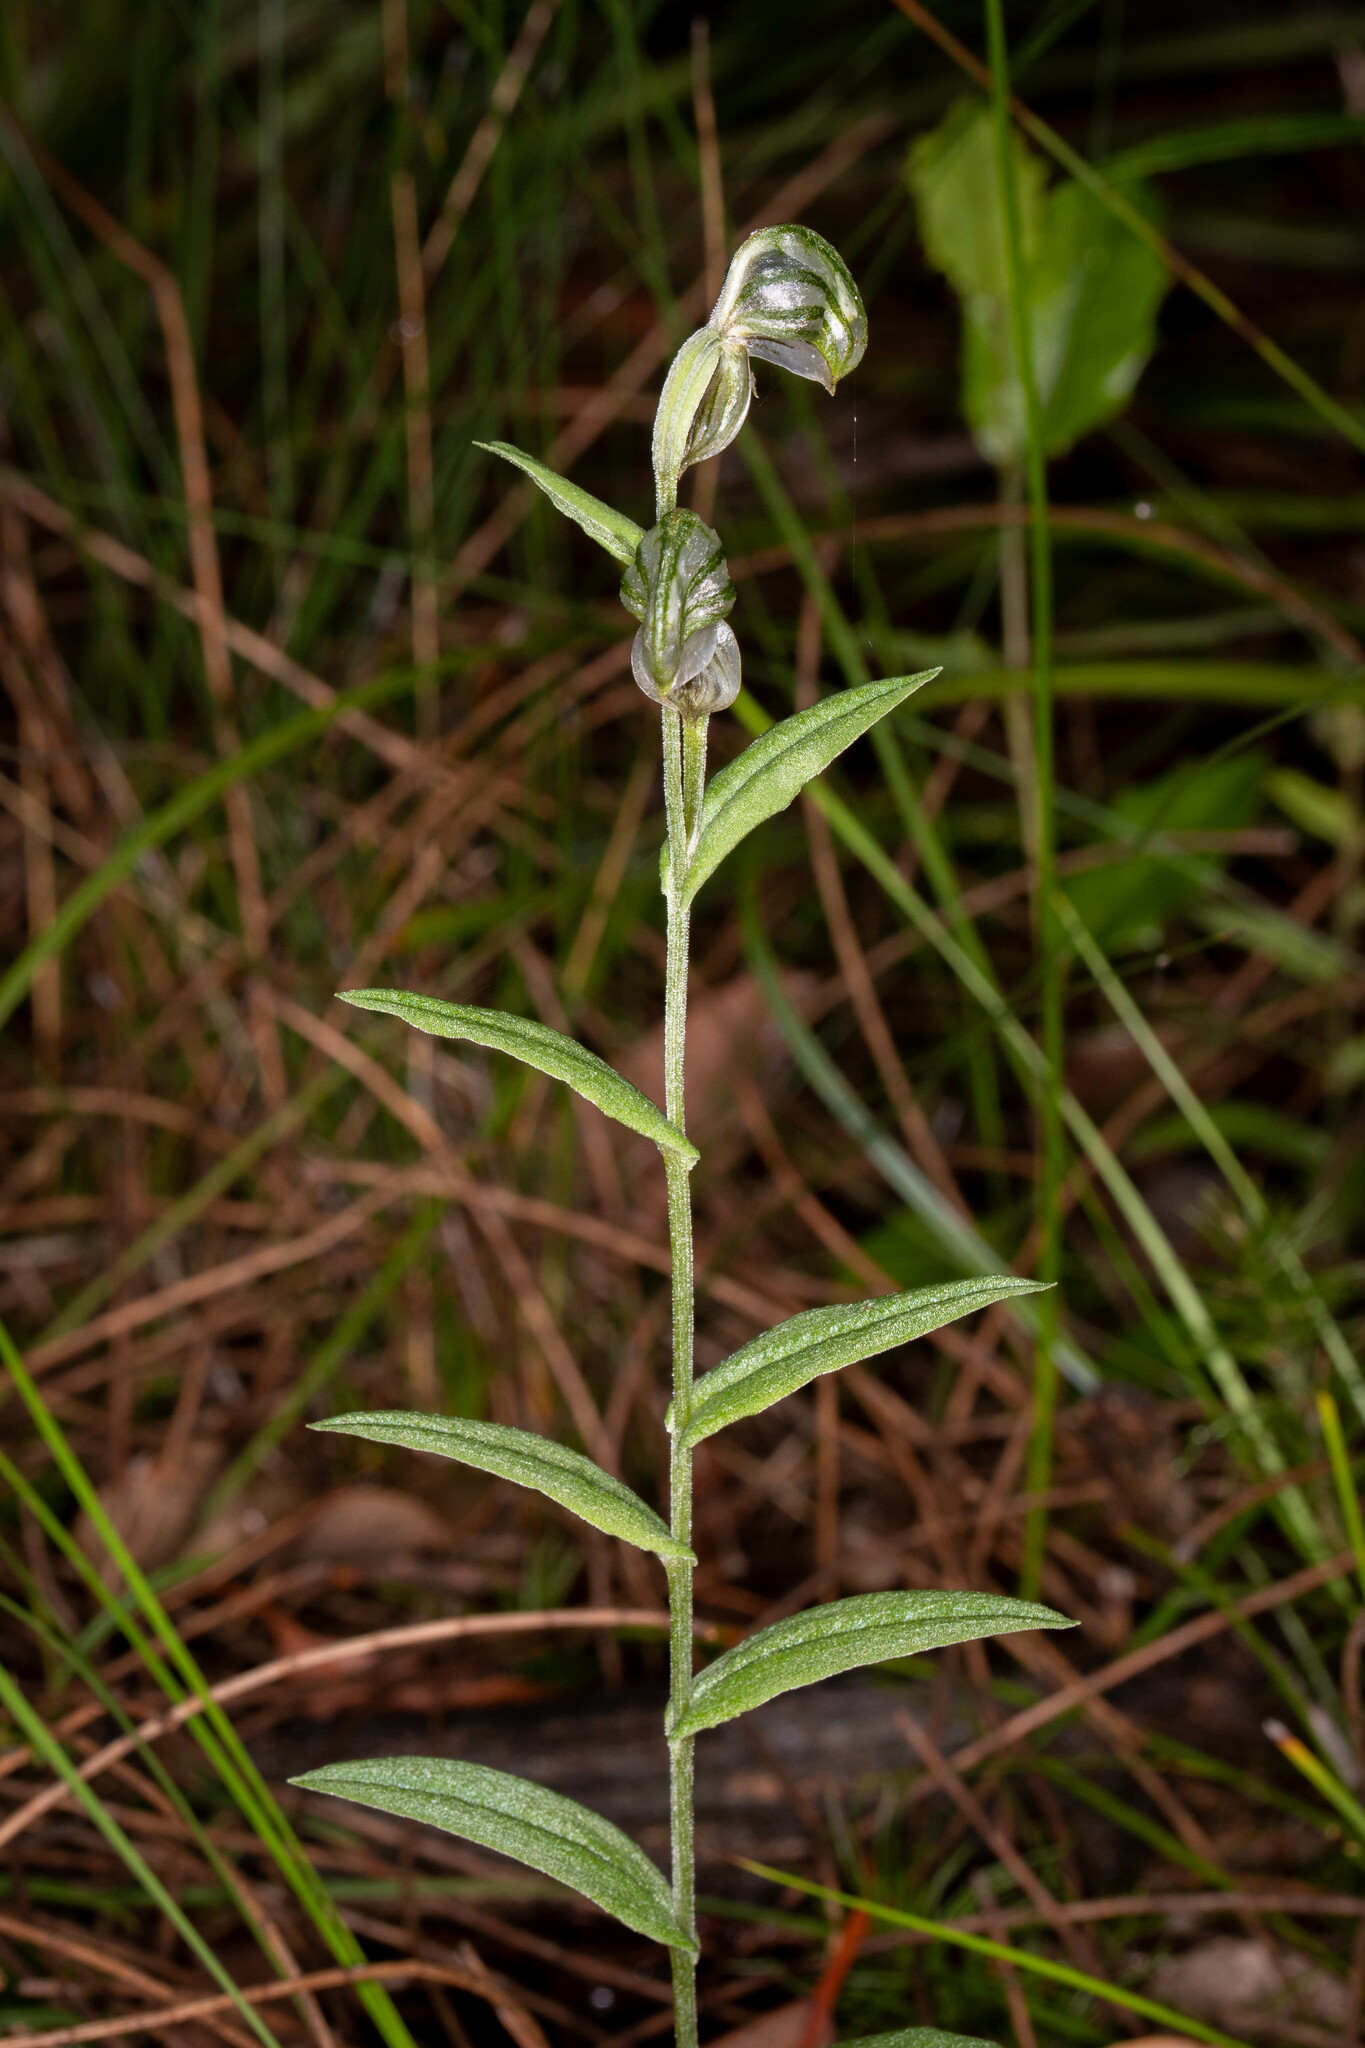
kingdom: Plantae
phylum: Tracheophyta
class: Liliopsida
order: Asparagales
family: Orchidaceae
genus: Pterostylis
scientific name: Pterostylis vittata
